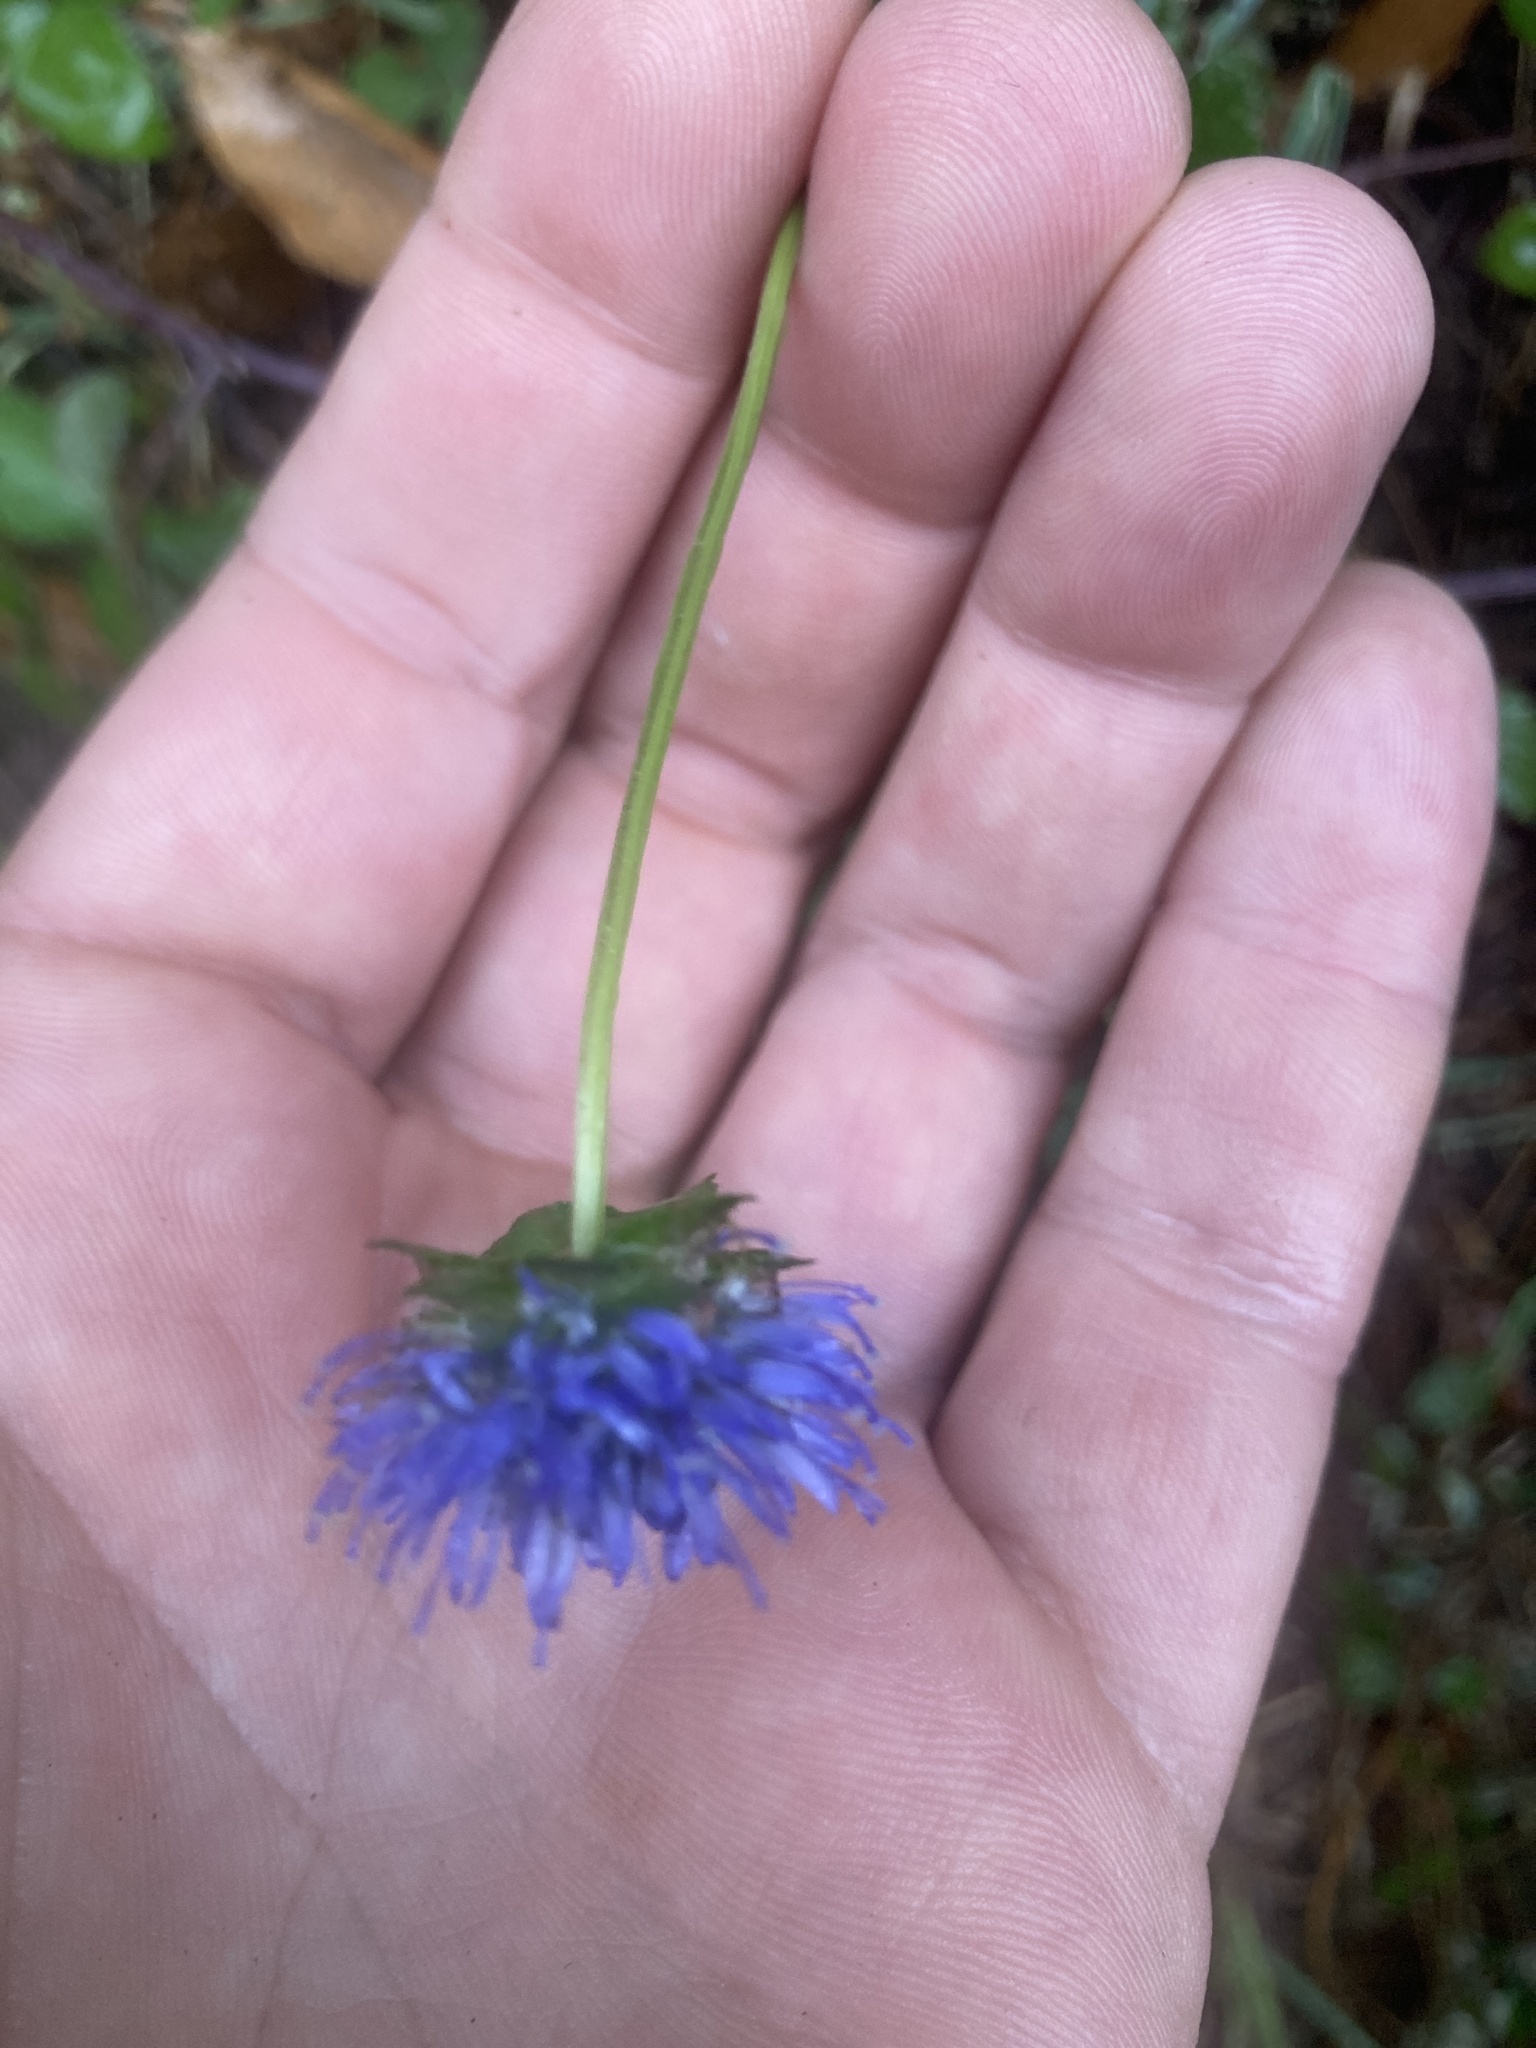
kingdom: Plantae
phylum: Tracheophyta
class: Magnoliopsida
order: Asterales
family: Campanulaceae
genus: Jasione
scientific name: Jasione montana
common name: Sheep's-bit
